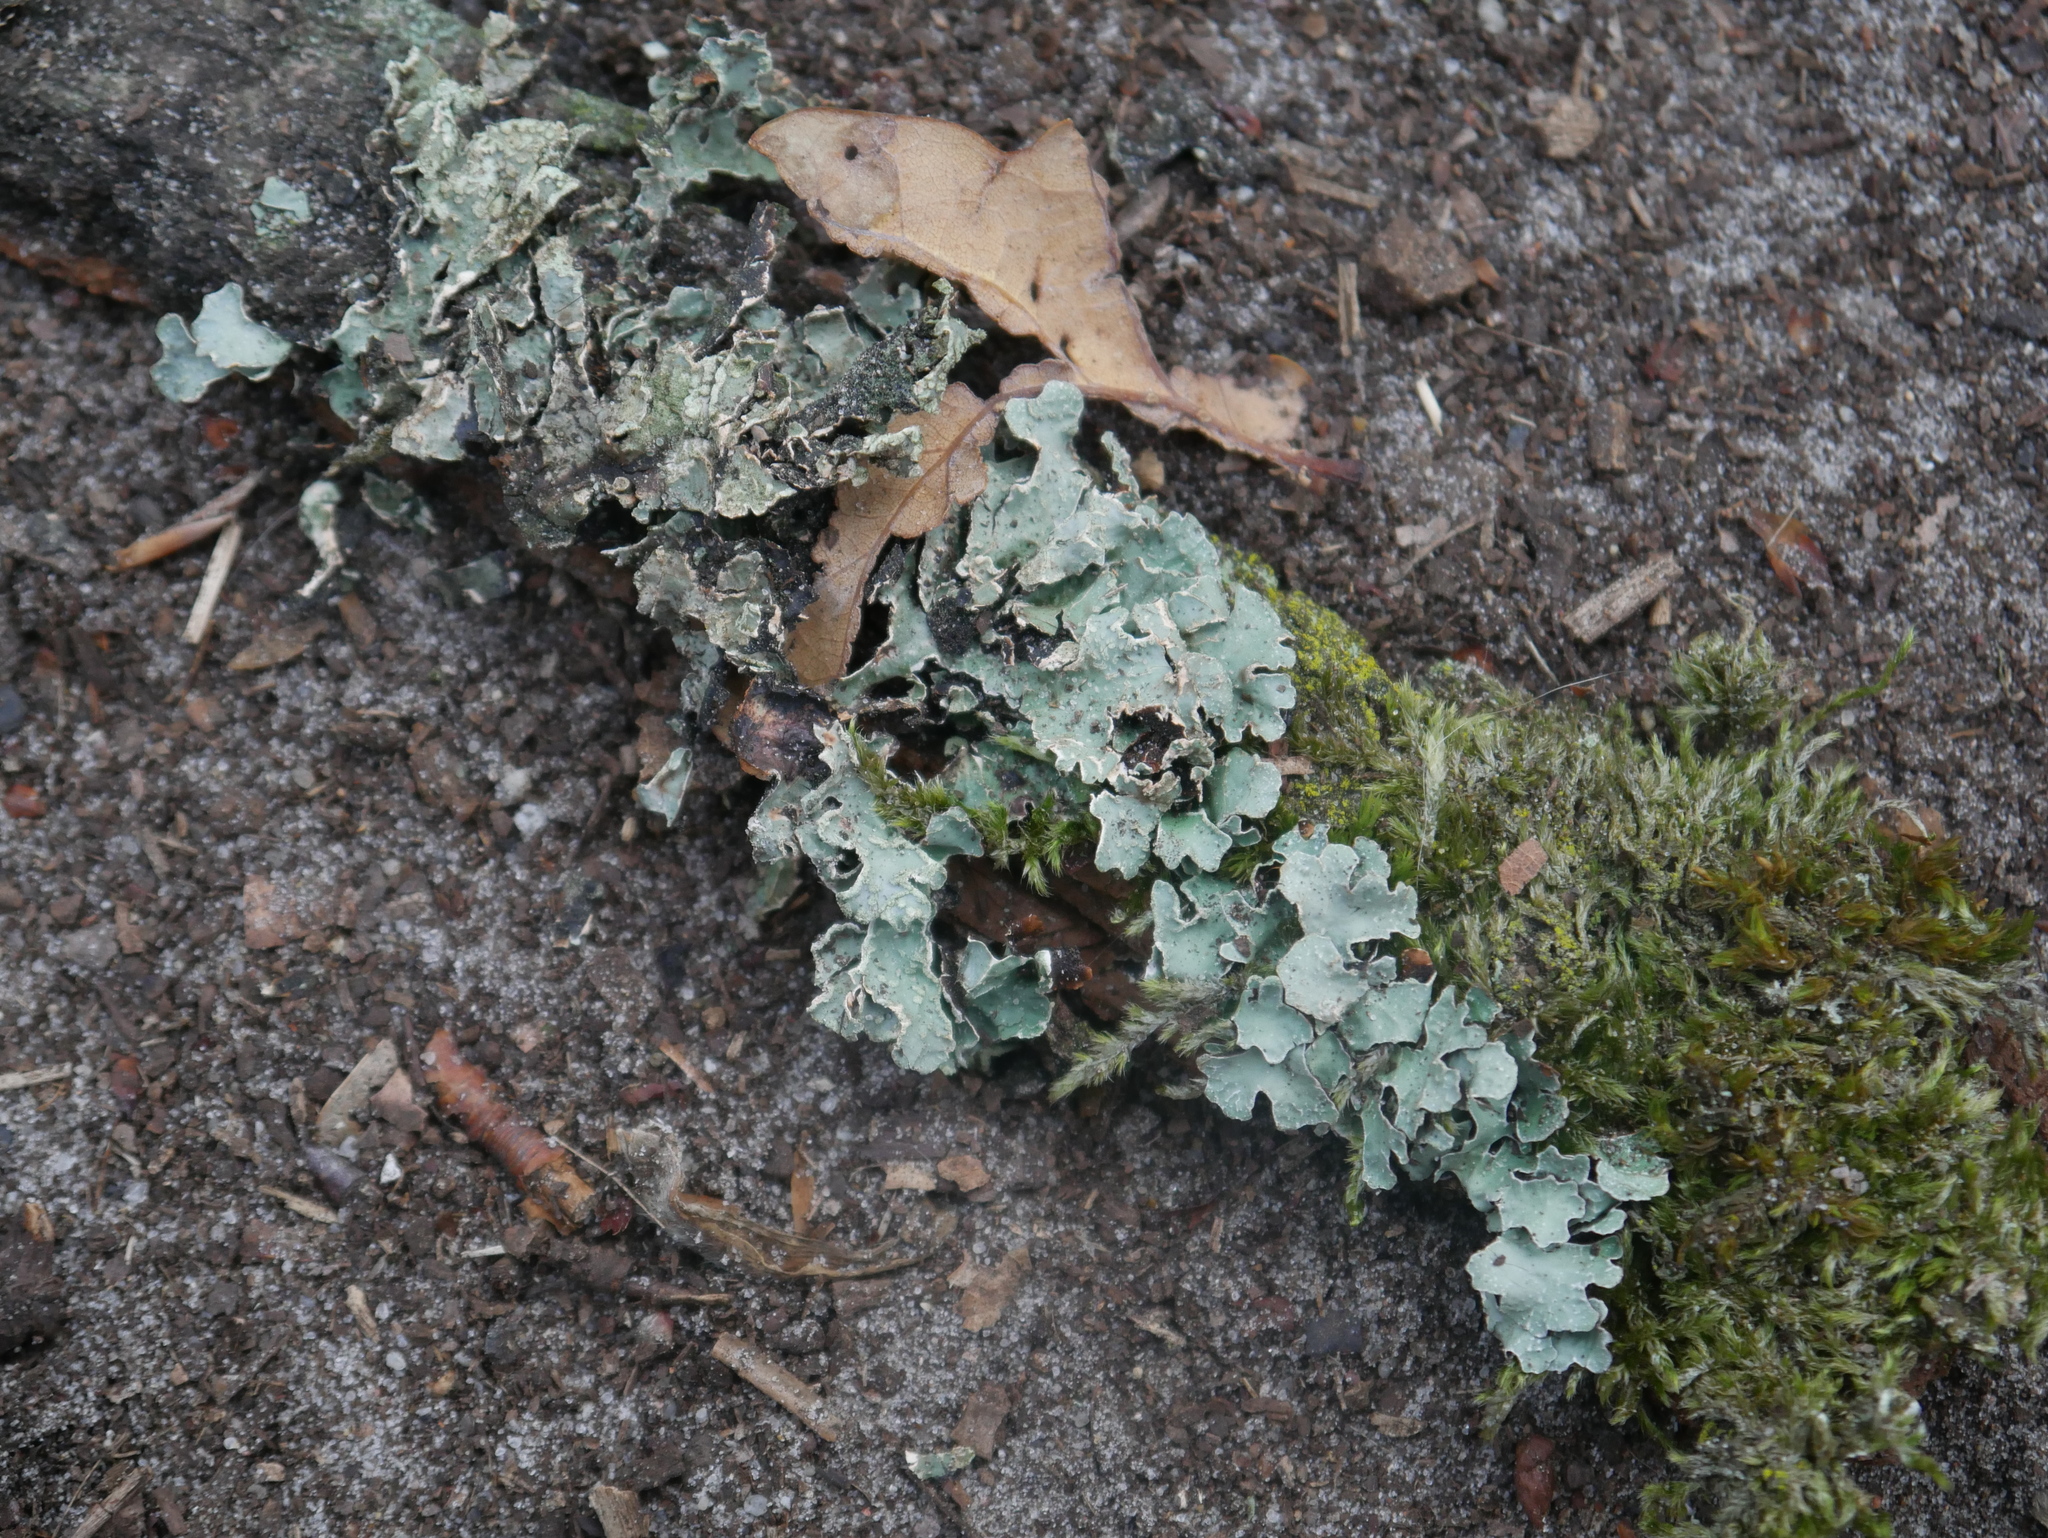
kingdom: Fungi
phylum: Ascomycota
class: Lecanoromycetes
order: Lecanorales
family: Parmeliaceae
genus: Parmelia
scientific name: Parmelia sulcata
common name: Netted shield lichen
